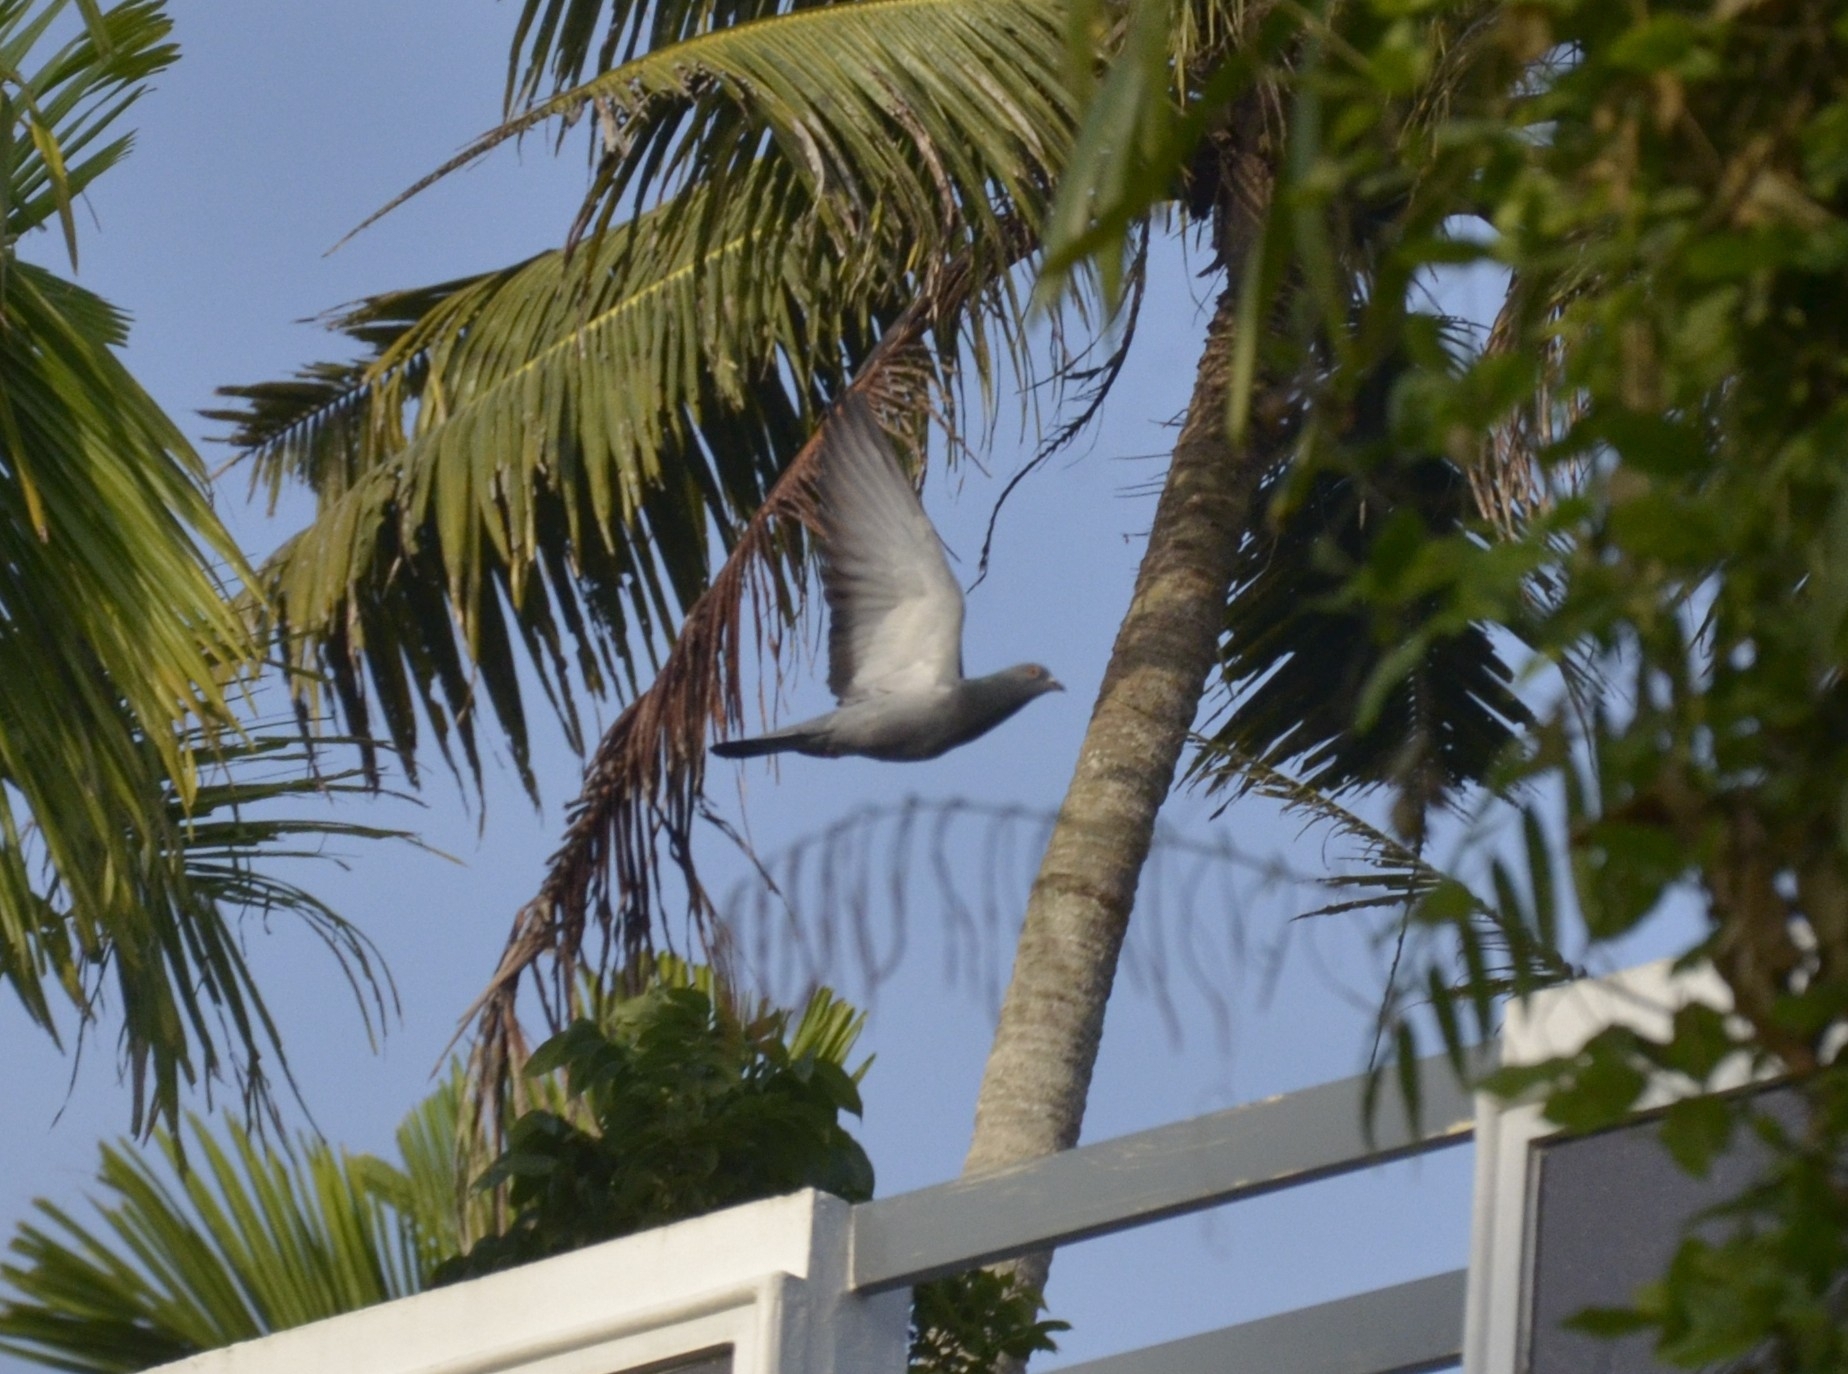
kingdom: Animalia
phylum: Chordata
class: Aves
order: Columbiformes
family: Columbidae
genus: Columba
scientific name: Columba livia
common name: Rock pigeon
